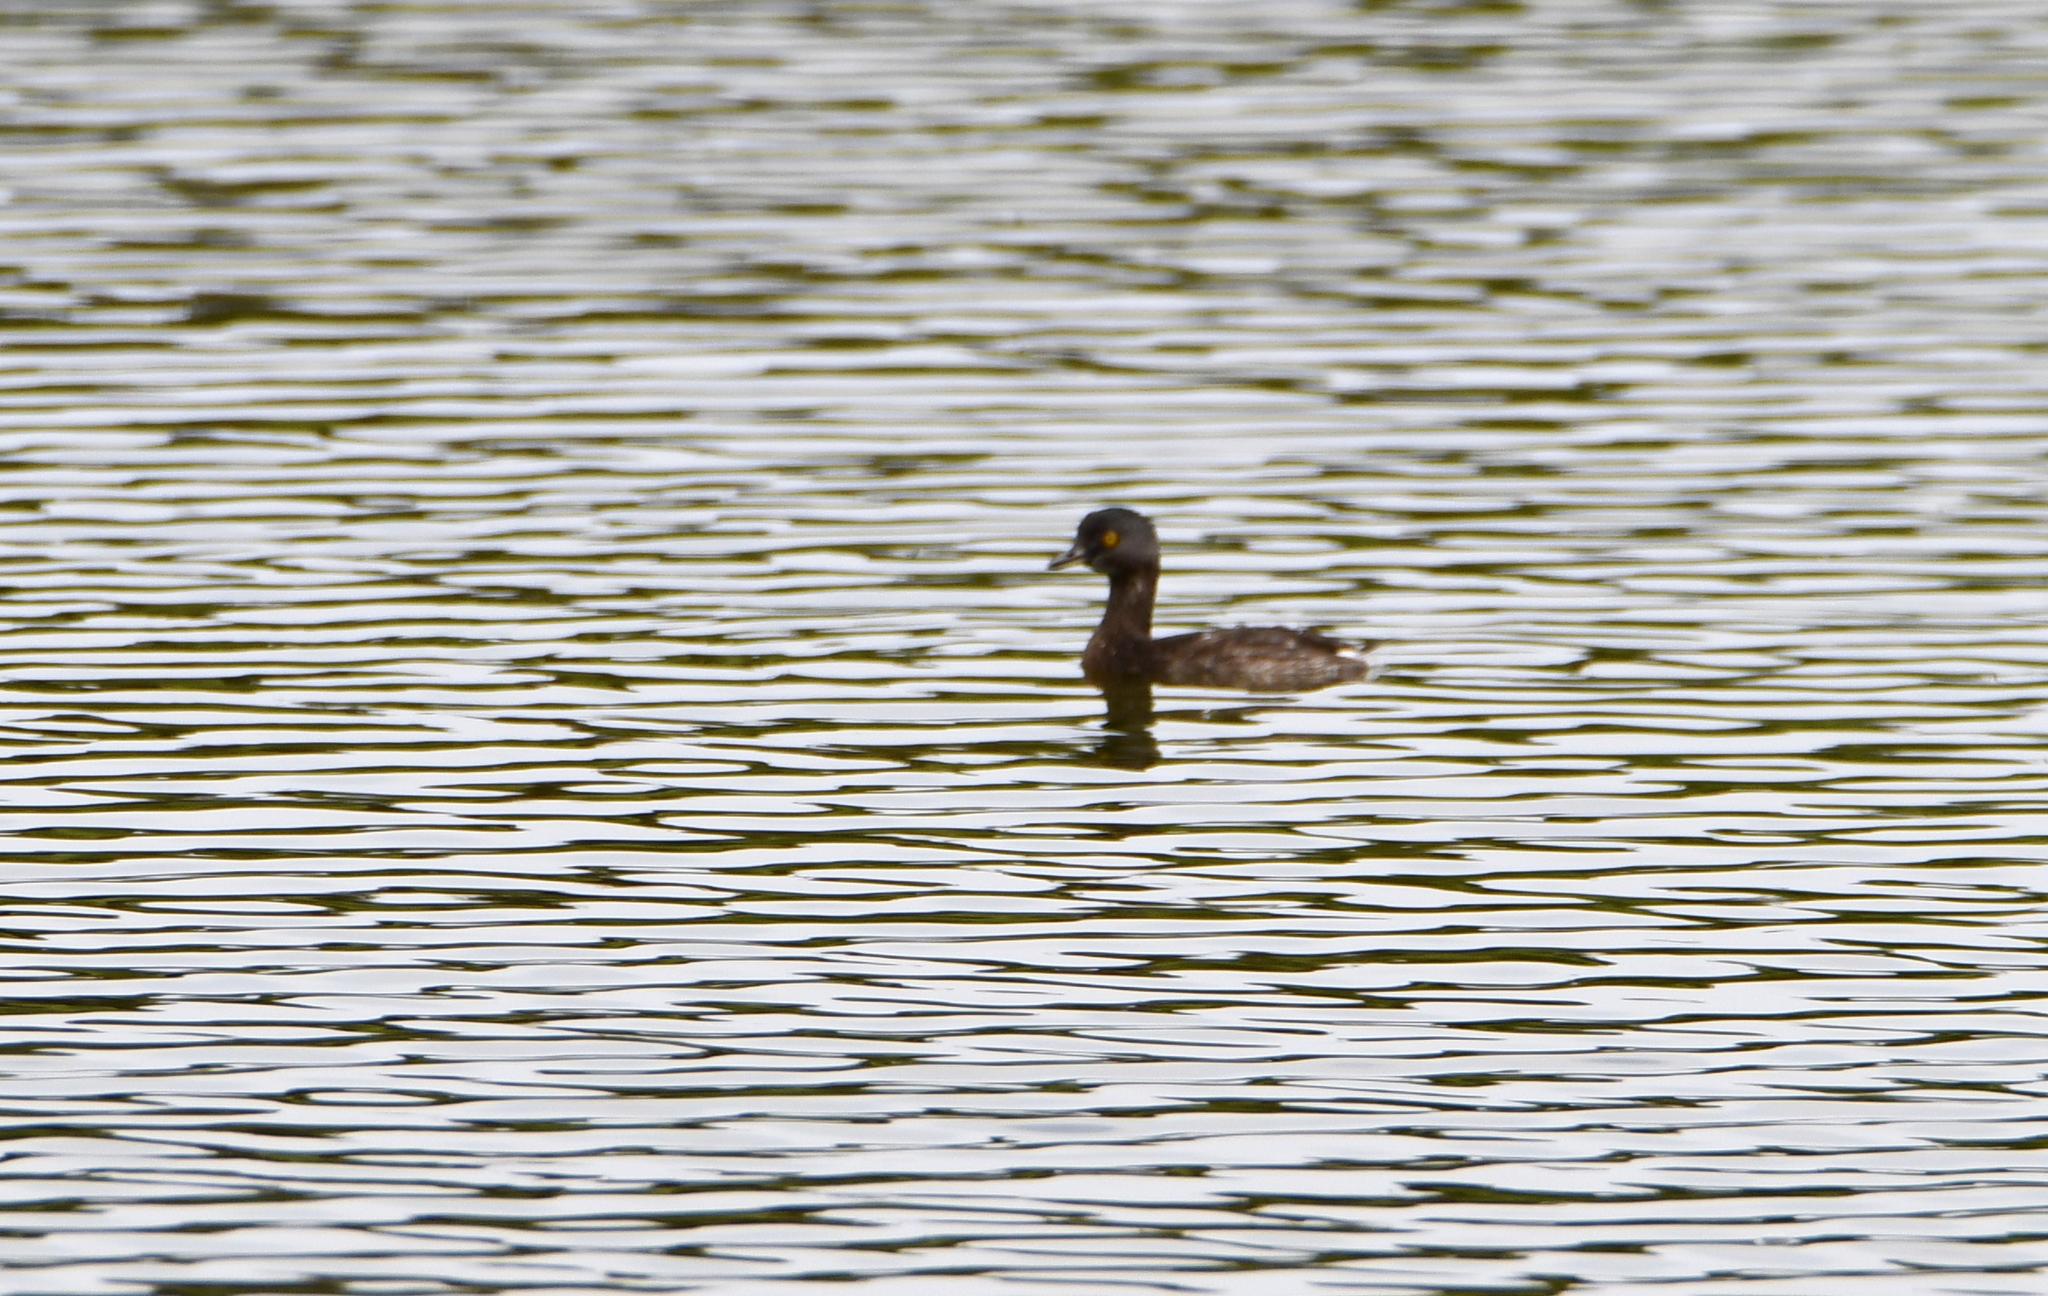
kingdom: Animalia
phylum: Chordata
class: Aves
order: Podicipediformes
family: Podicipedidae
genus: Tachybaptus
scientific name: Tachybaptus dominicus
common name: Least grebe
